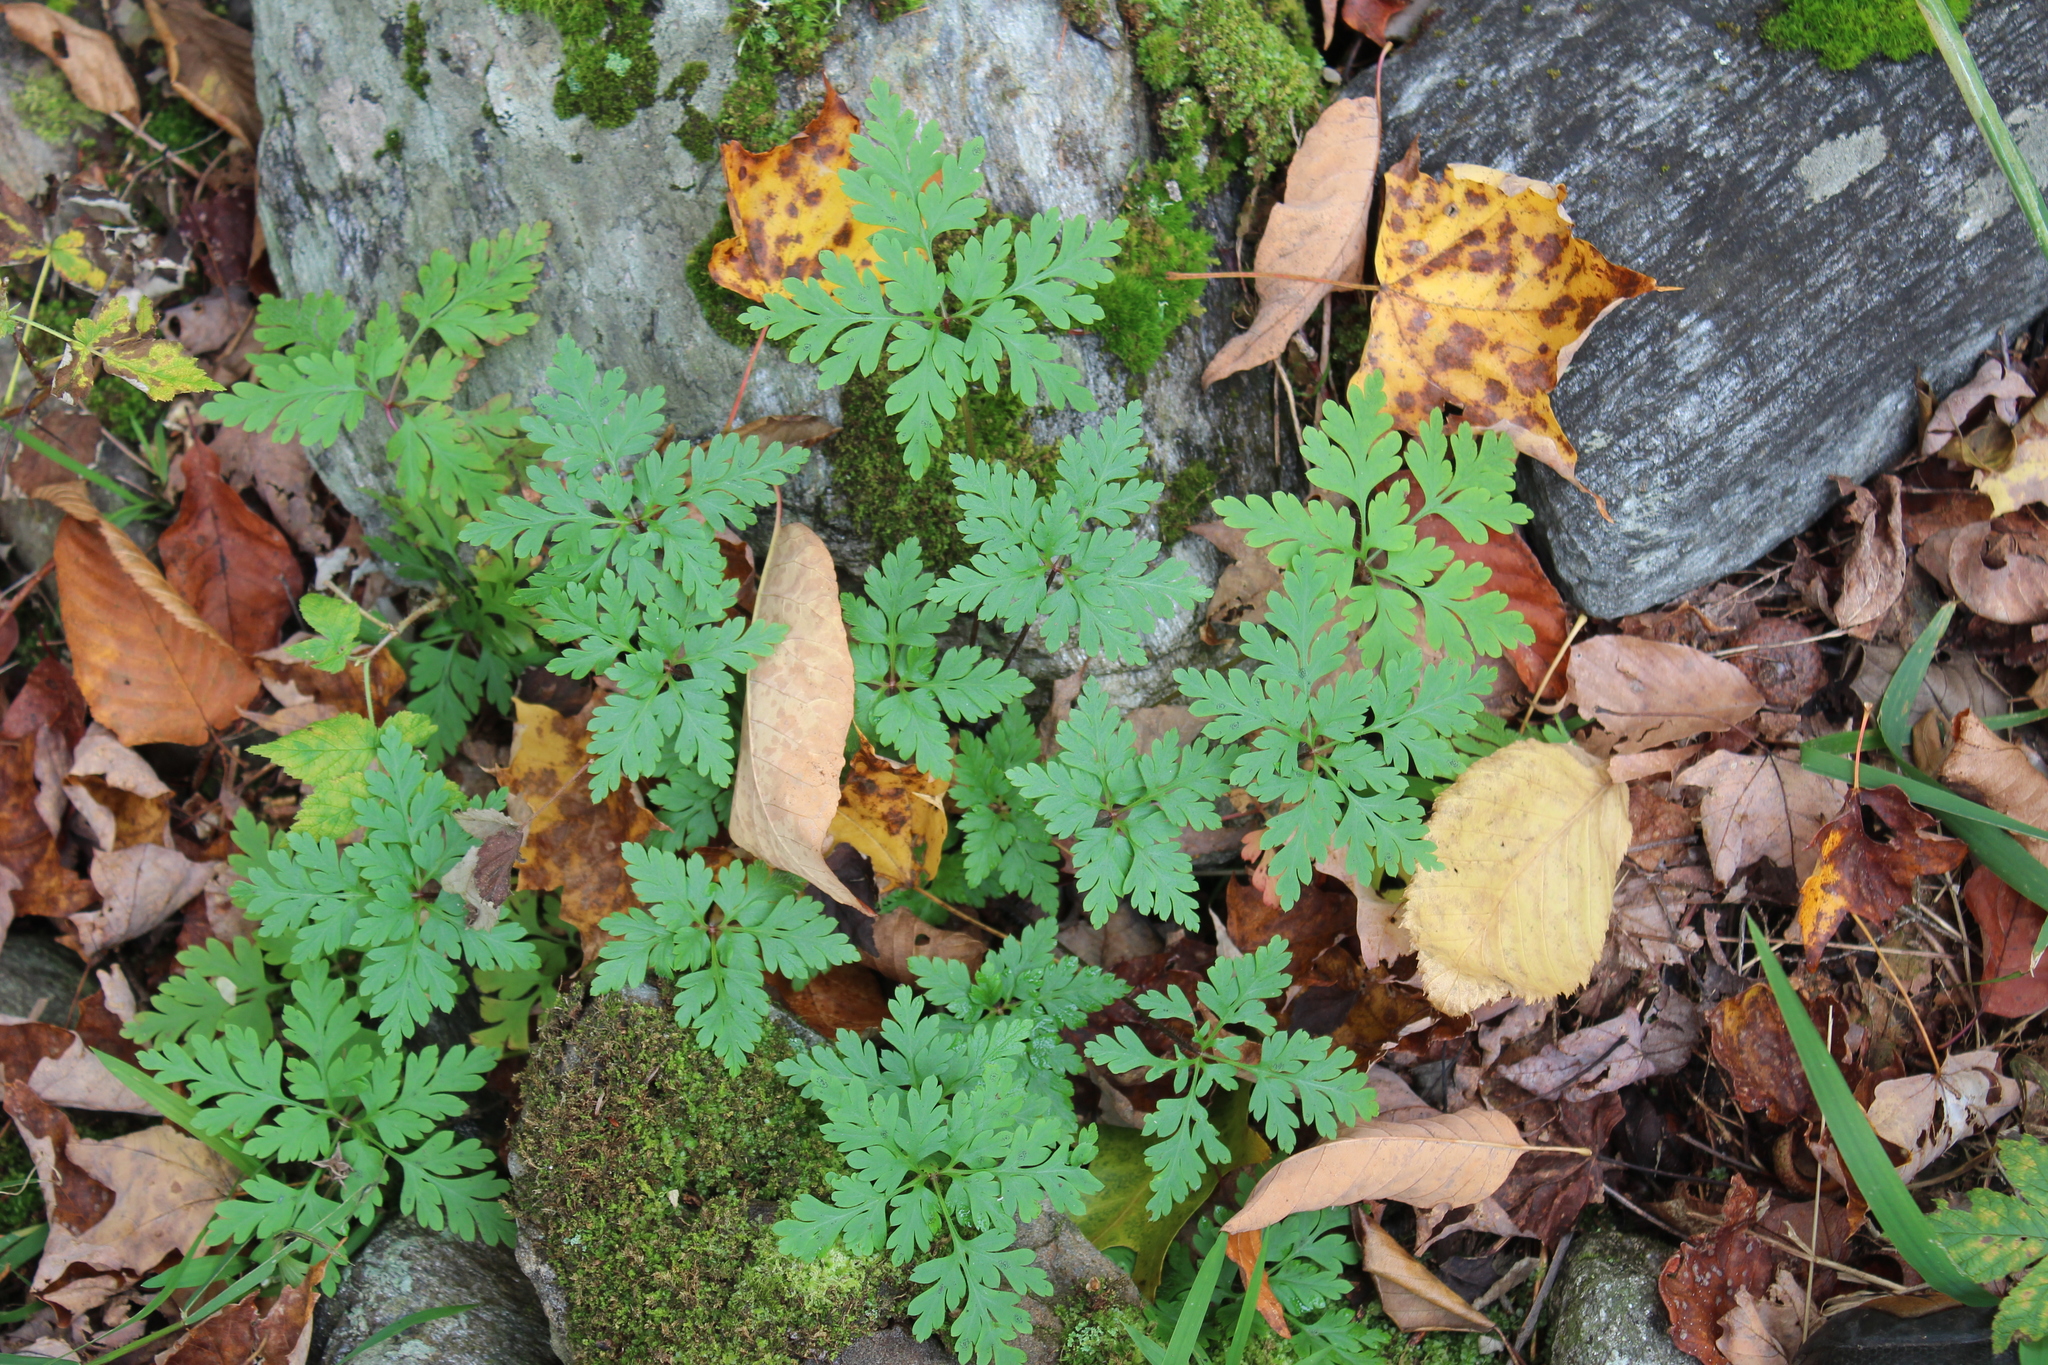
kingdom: Plantae
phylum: Tracheophyta
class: Magnoliopsida
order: Geraniales
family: Geraniaceae
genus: Geranium
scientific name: Geranium robertianum
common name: Herb-robert
